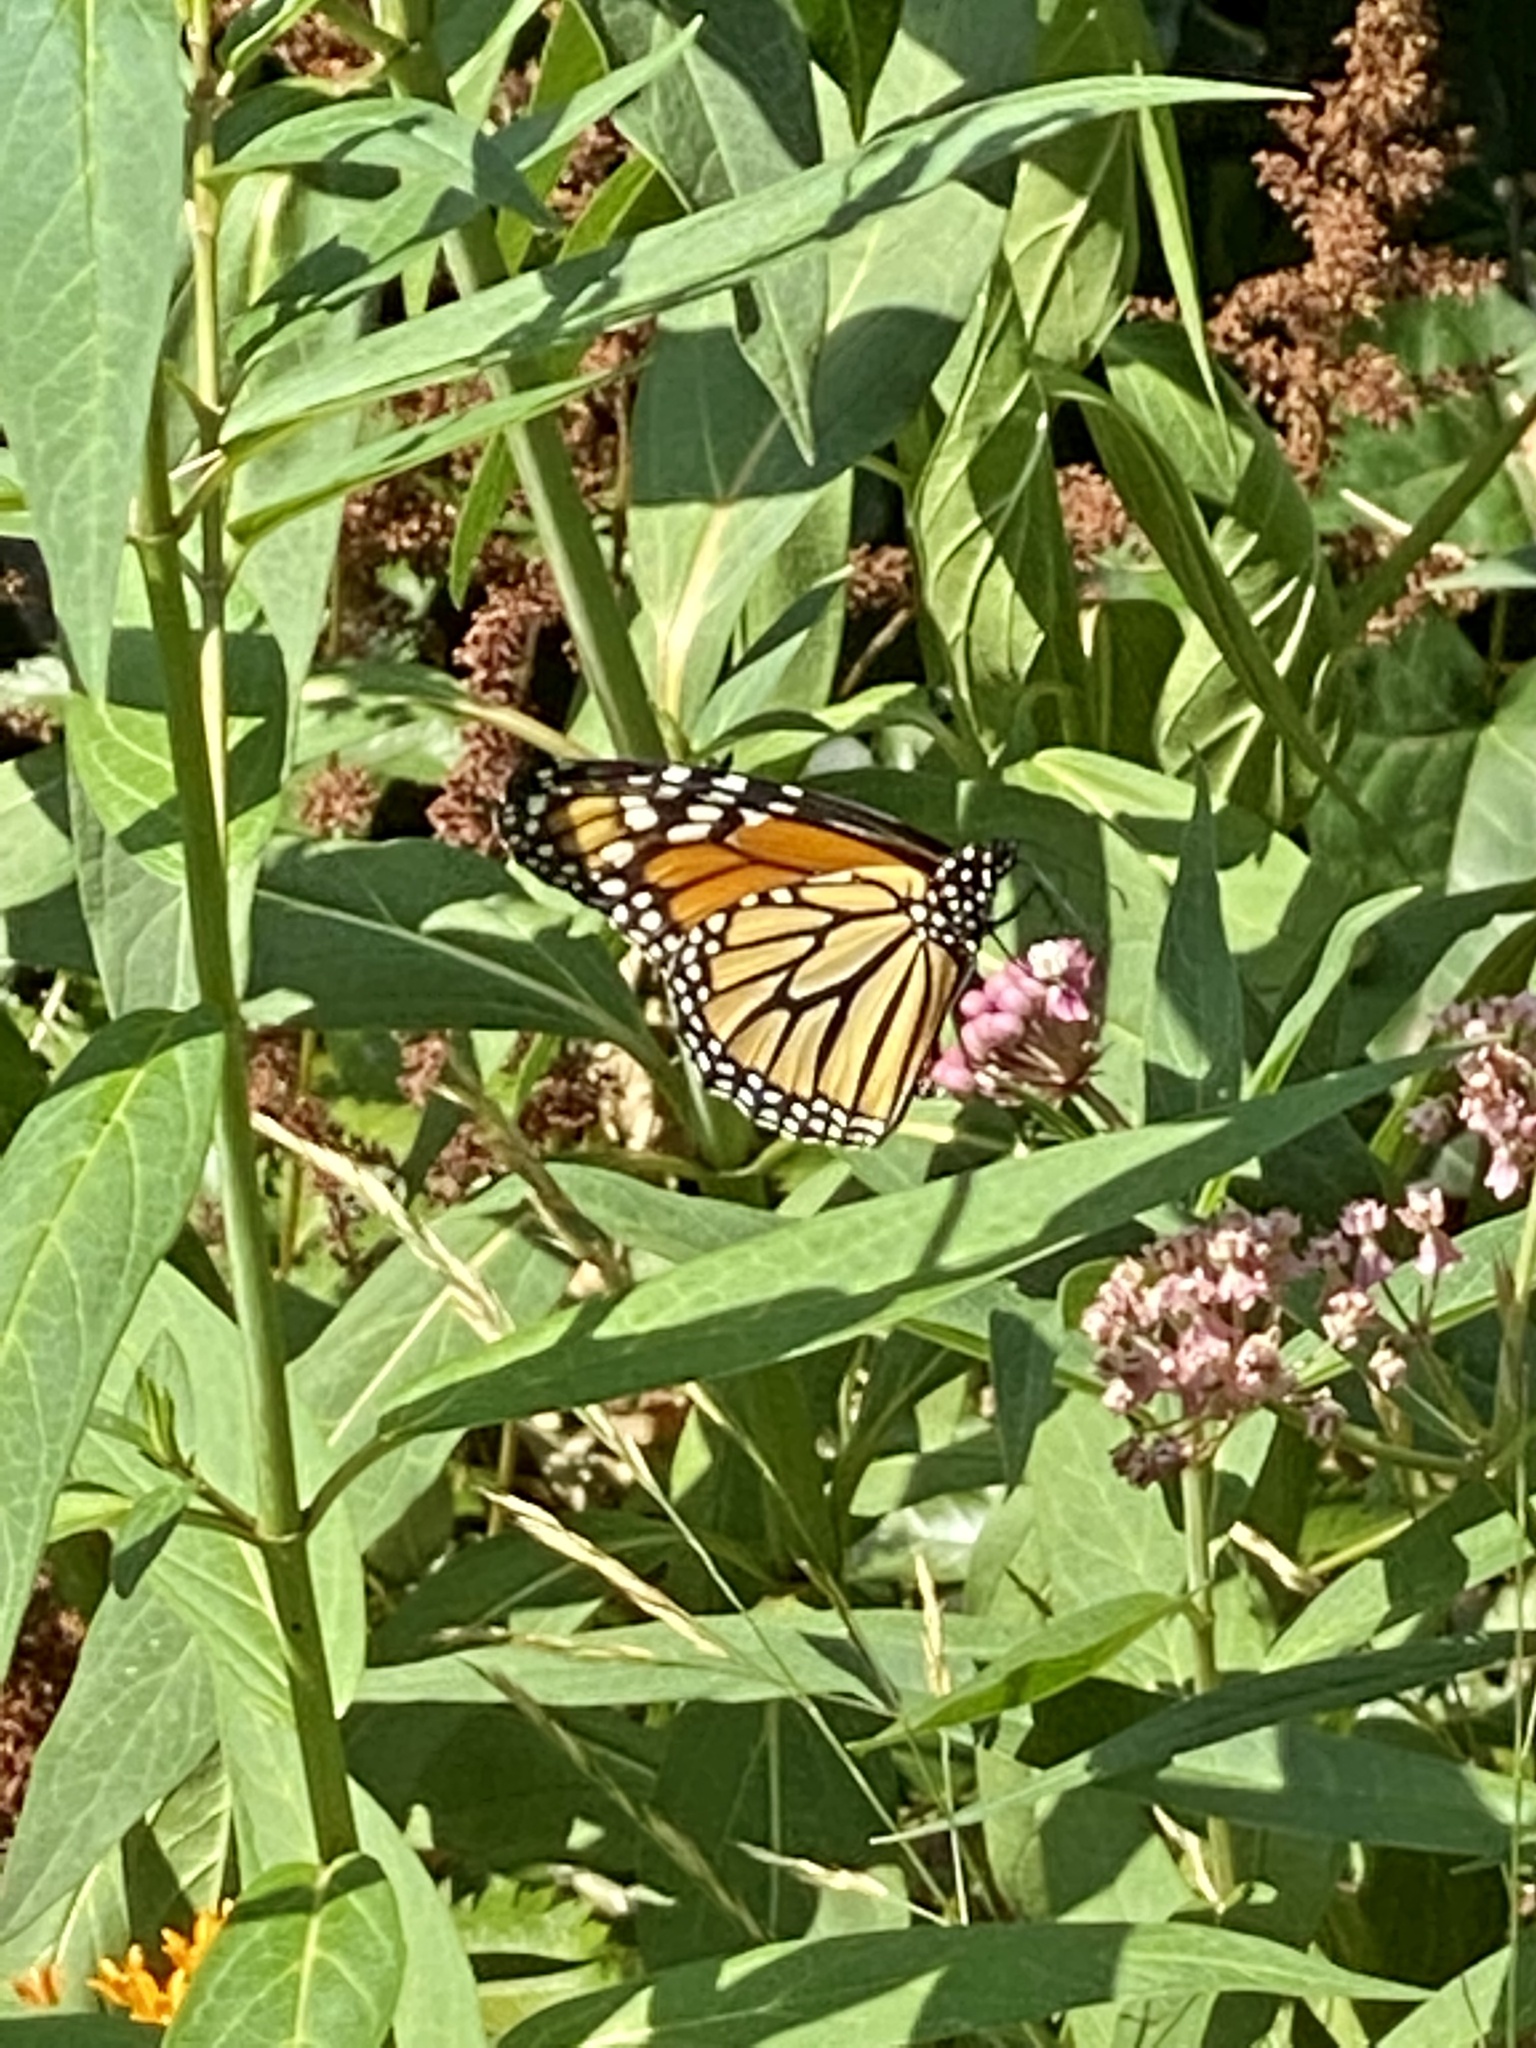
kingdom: Animalia
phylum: Arthropoda
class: Insecta
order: Lepidoptera
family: Nymphalidae
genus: Danaus
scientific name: Danaus plexippus
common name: Monarch
